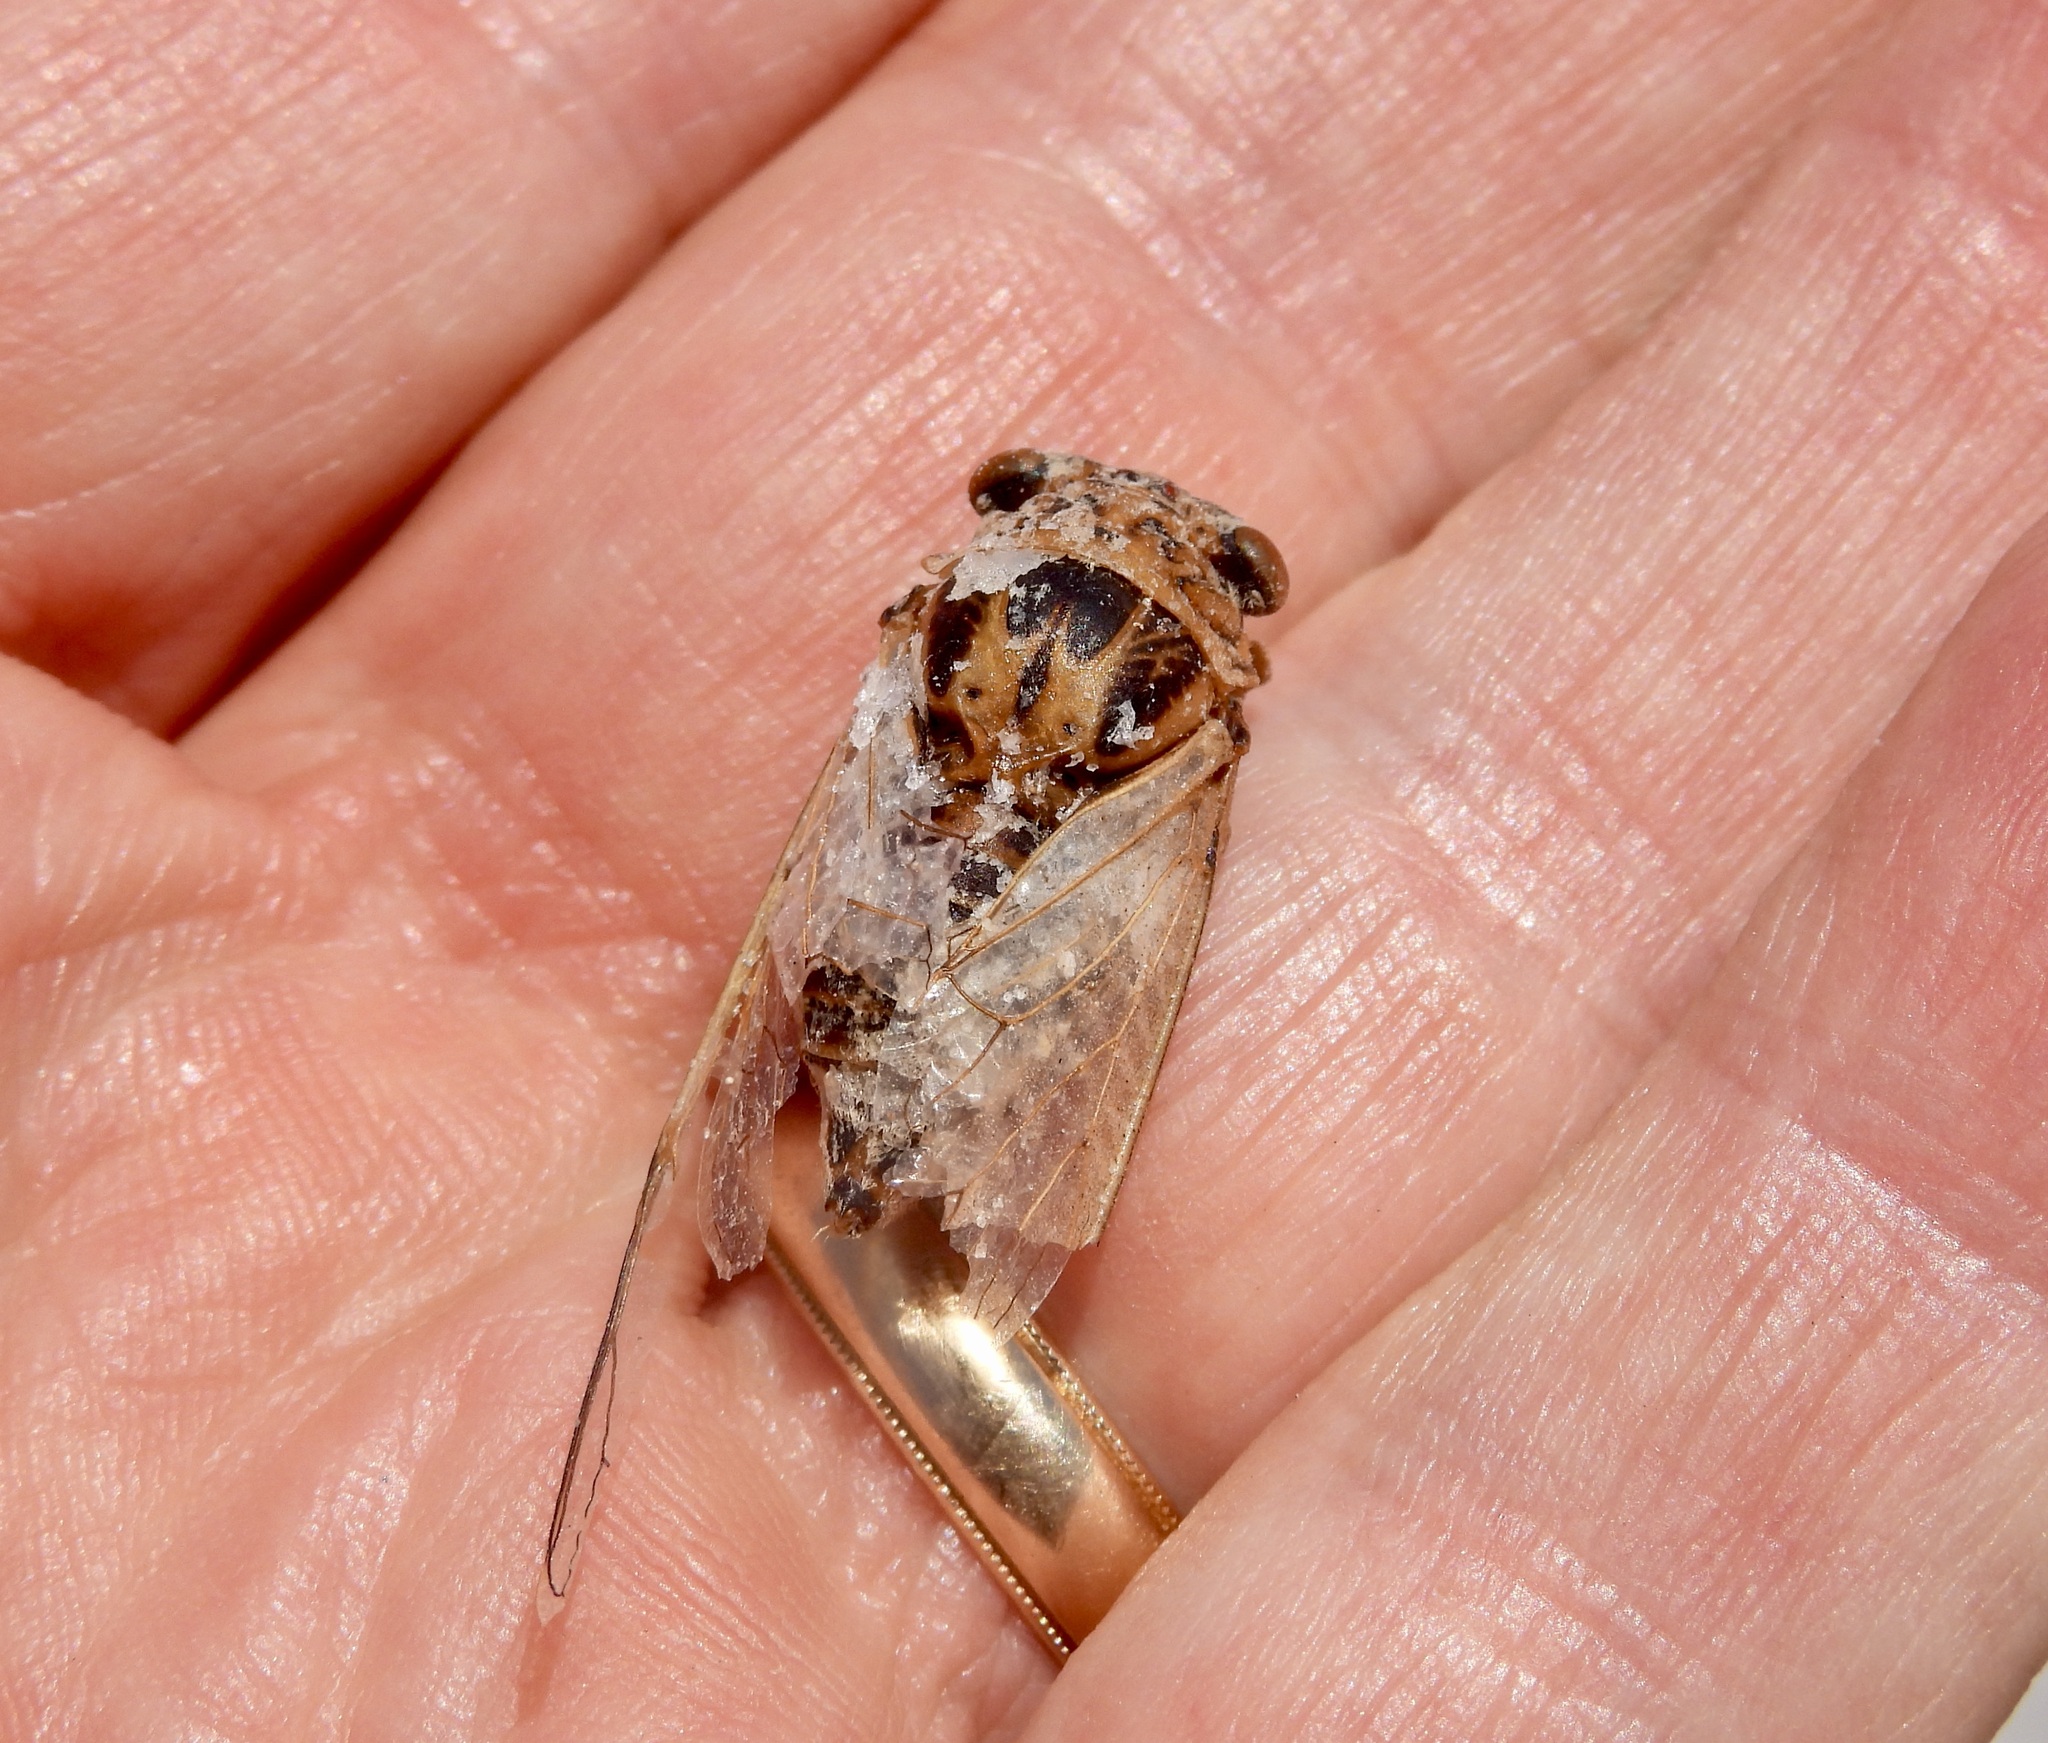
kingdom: Animalia
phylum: Arthropoda
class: Insecta
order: Hemiptera
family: Cicadidae
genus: Diceroprocta
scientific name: Diceroprocta eugraphica
